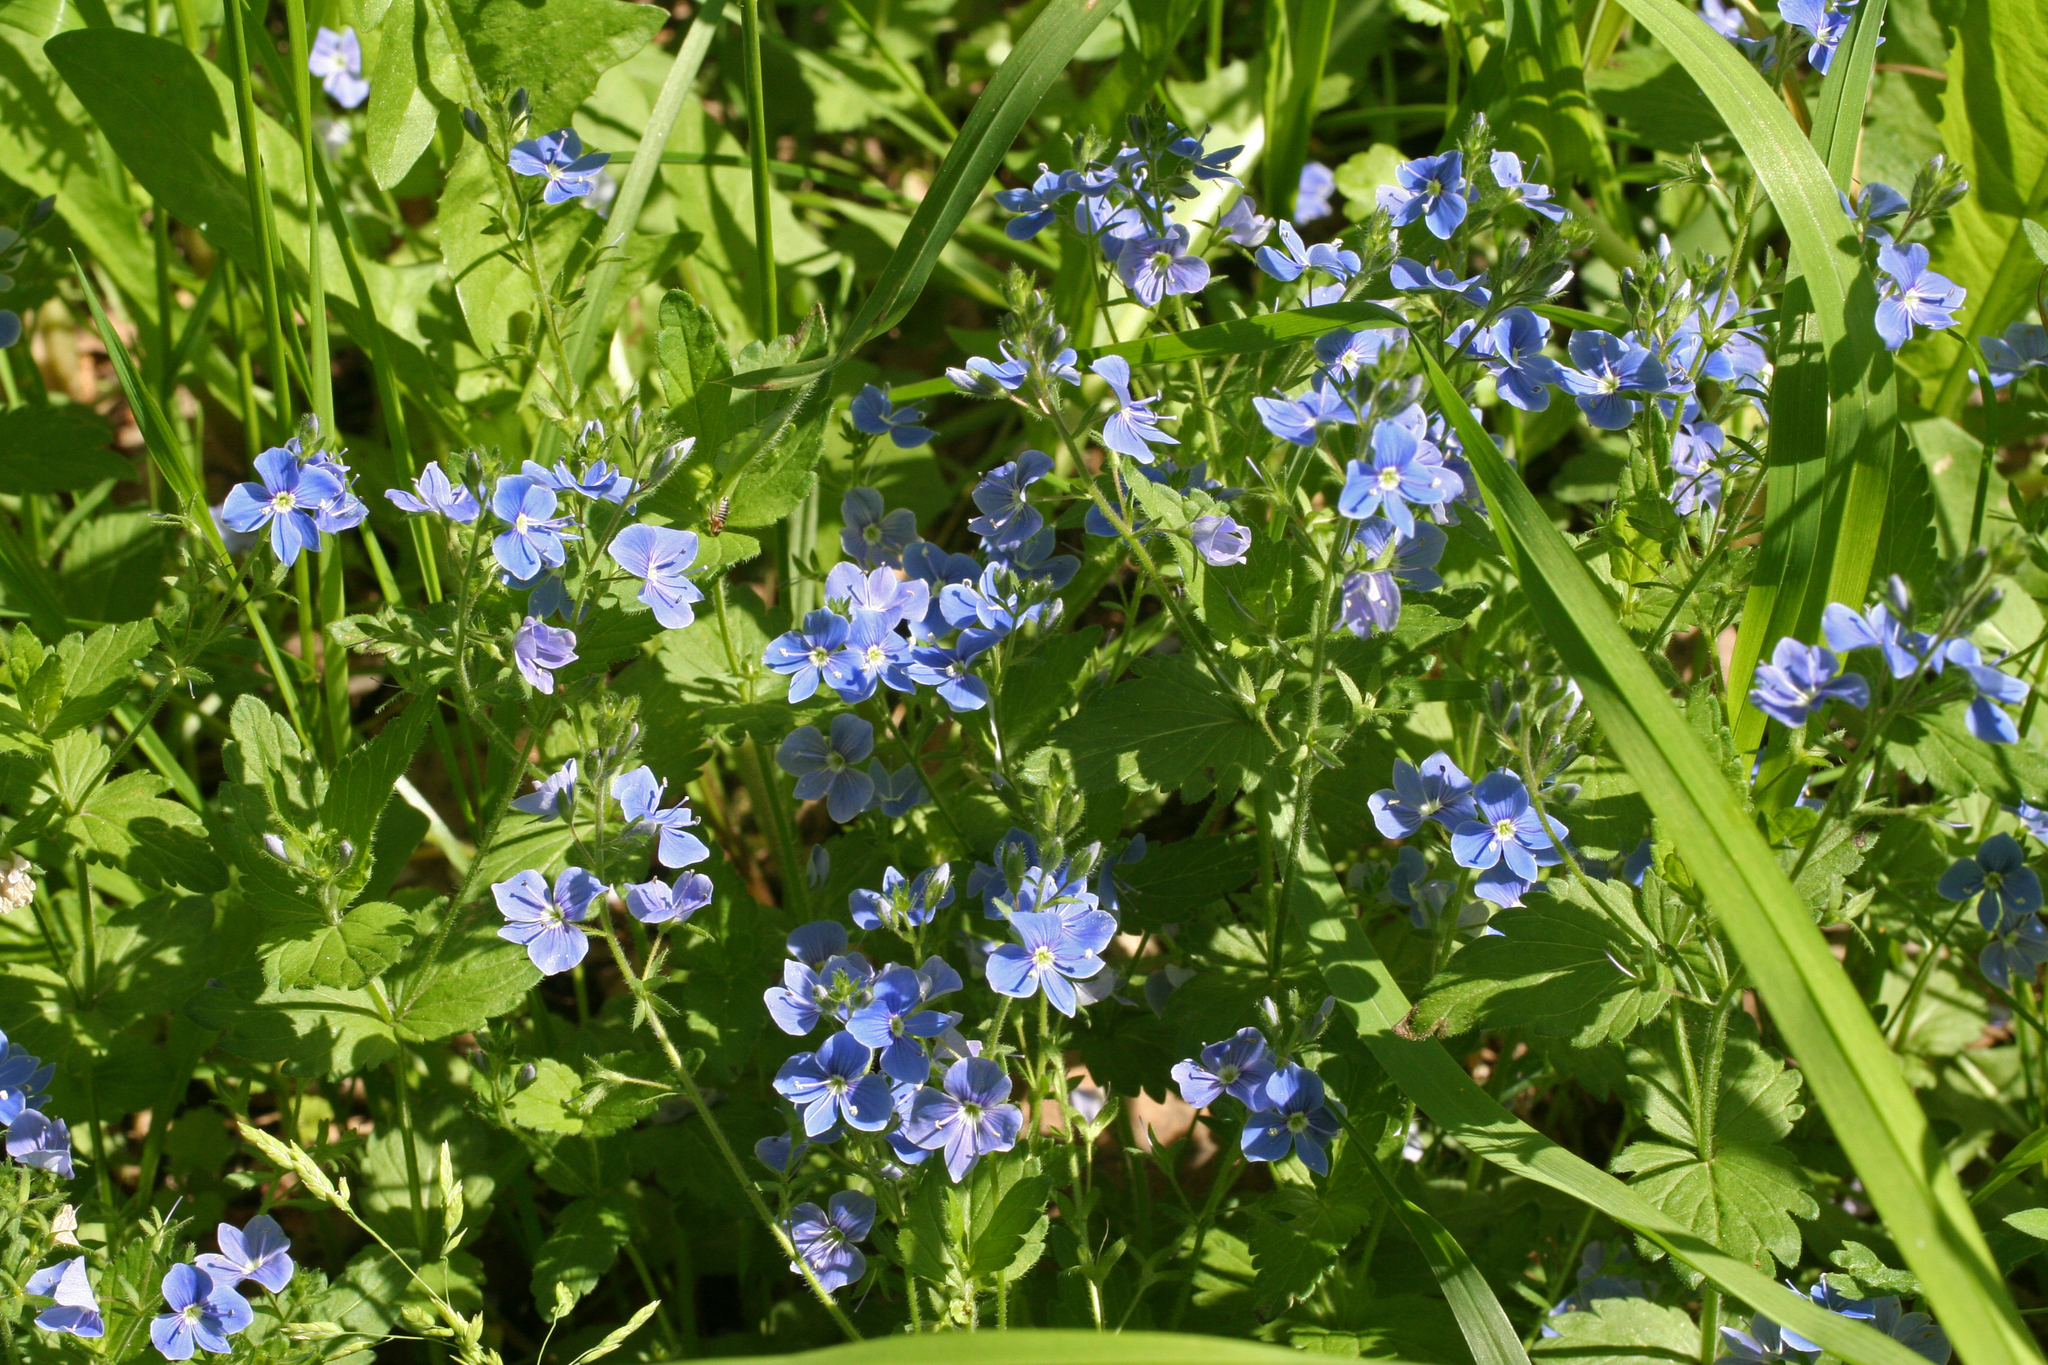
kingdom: Plantae
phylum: Tracheophyta
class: Magnoliopsida
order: Lamiales
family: Plantaginaceae
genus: Veronica
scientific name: Veronica chamaedrys
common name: Germander speedwell
